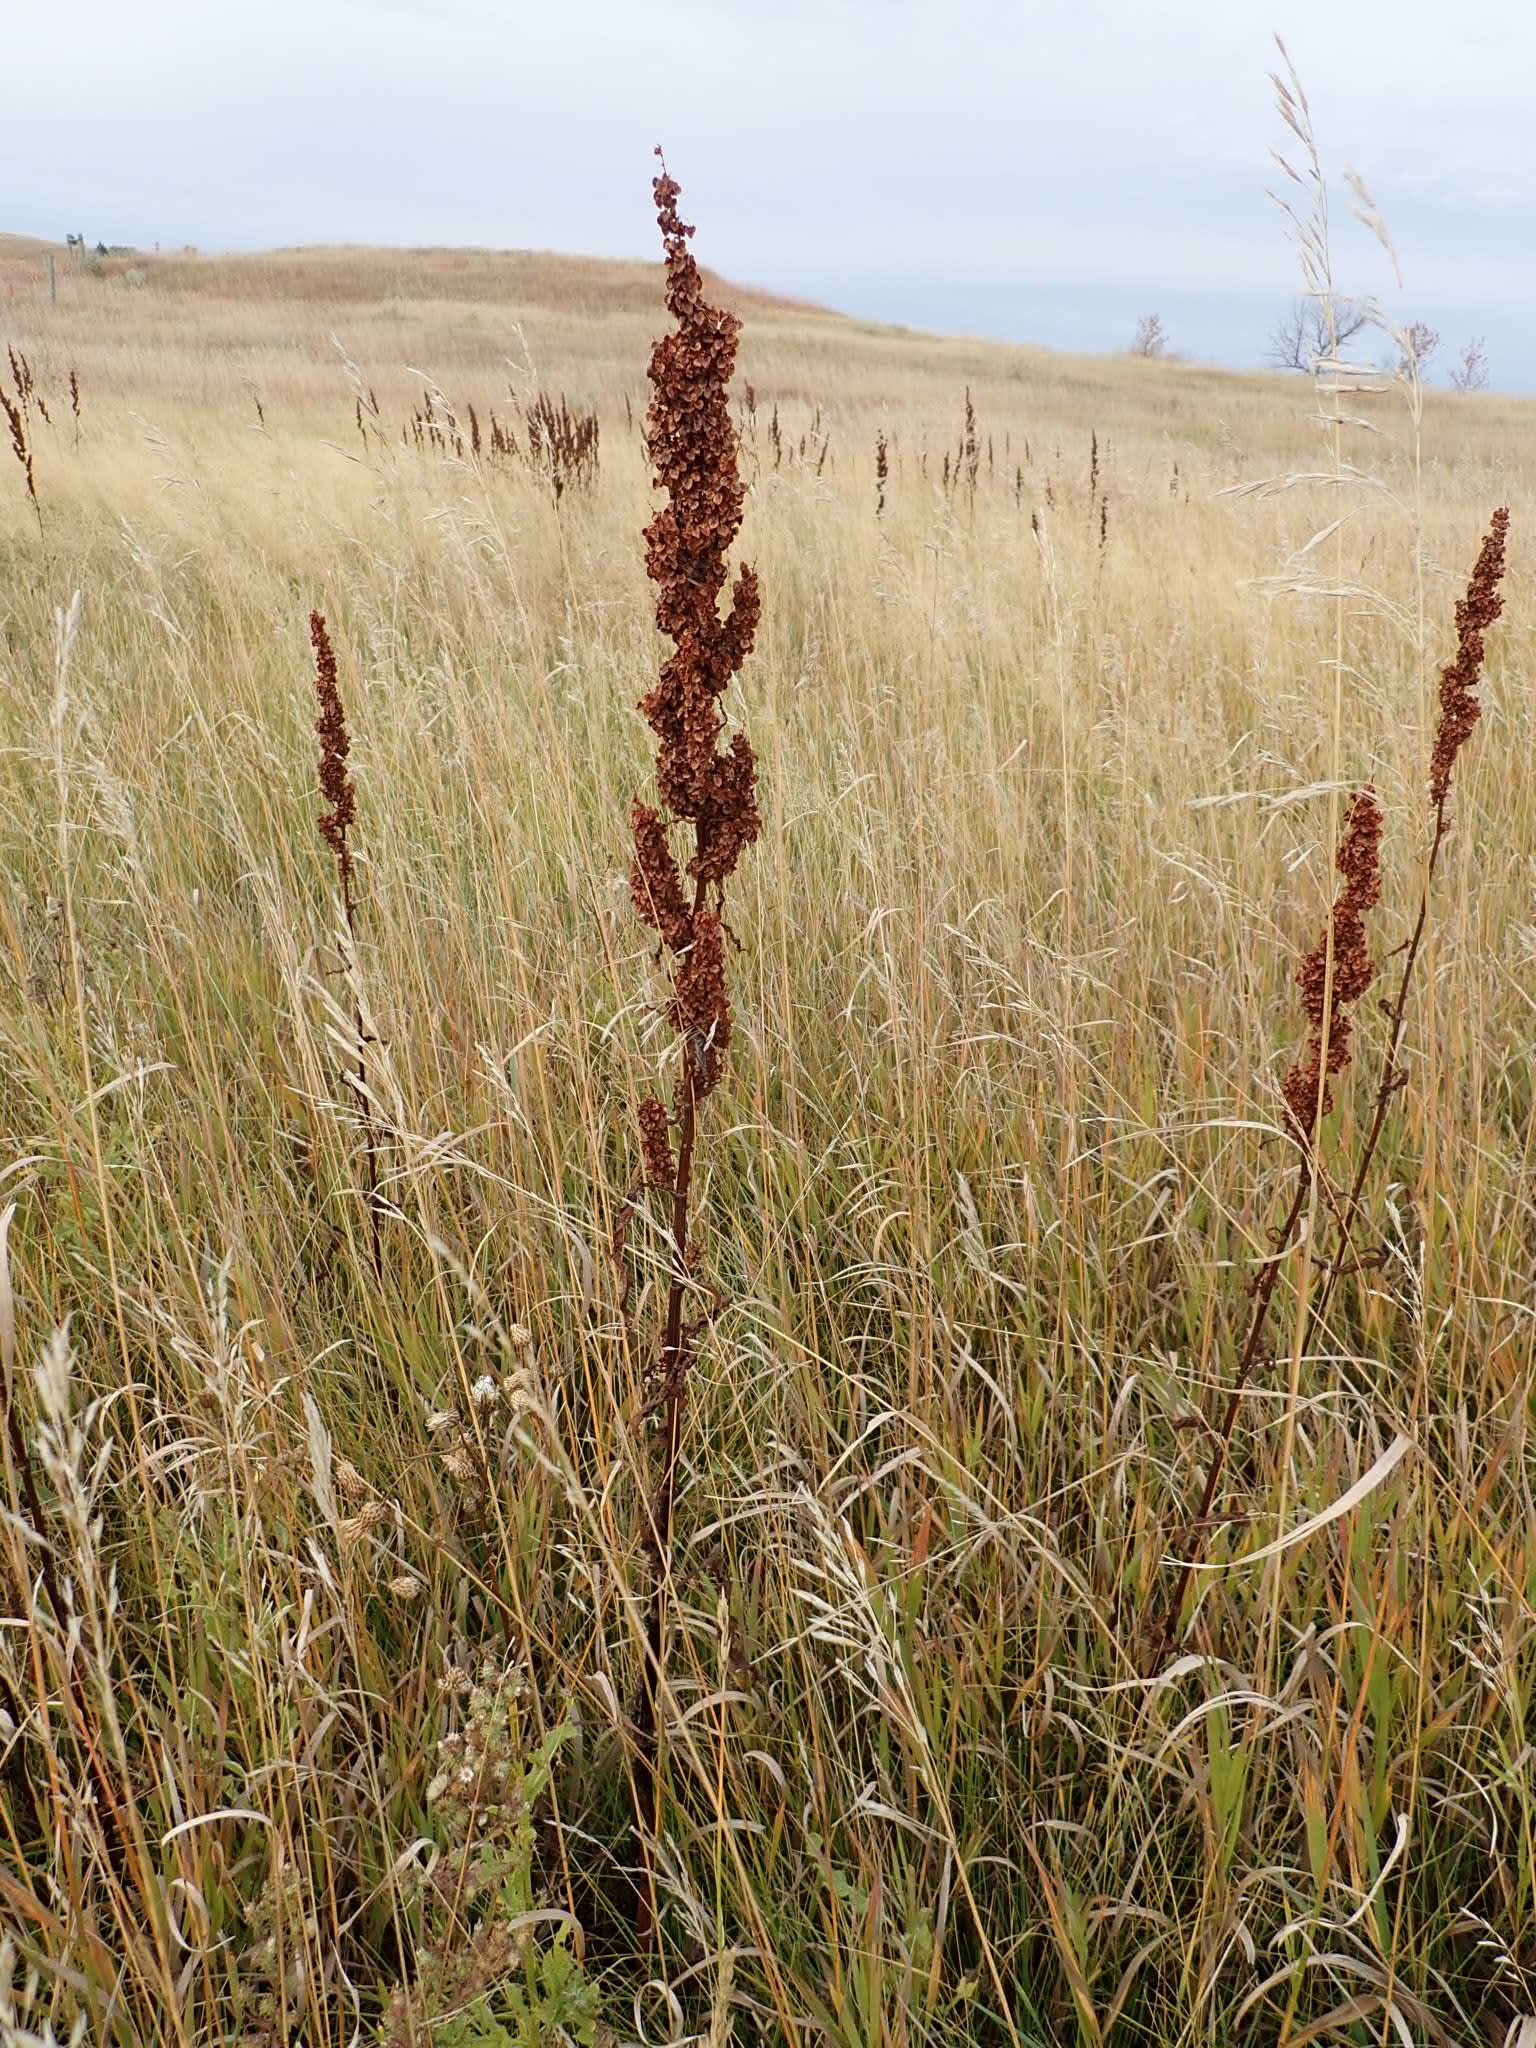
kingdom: Plantae
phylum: Tracheophyta
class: Magnoliopsida
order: Caryophyllales
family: Polygonaceae
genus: Rumex
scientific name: Rumex crispus
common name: Curled dock
